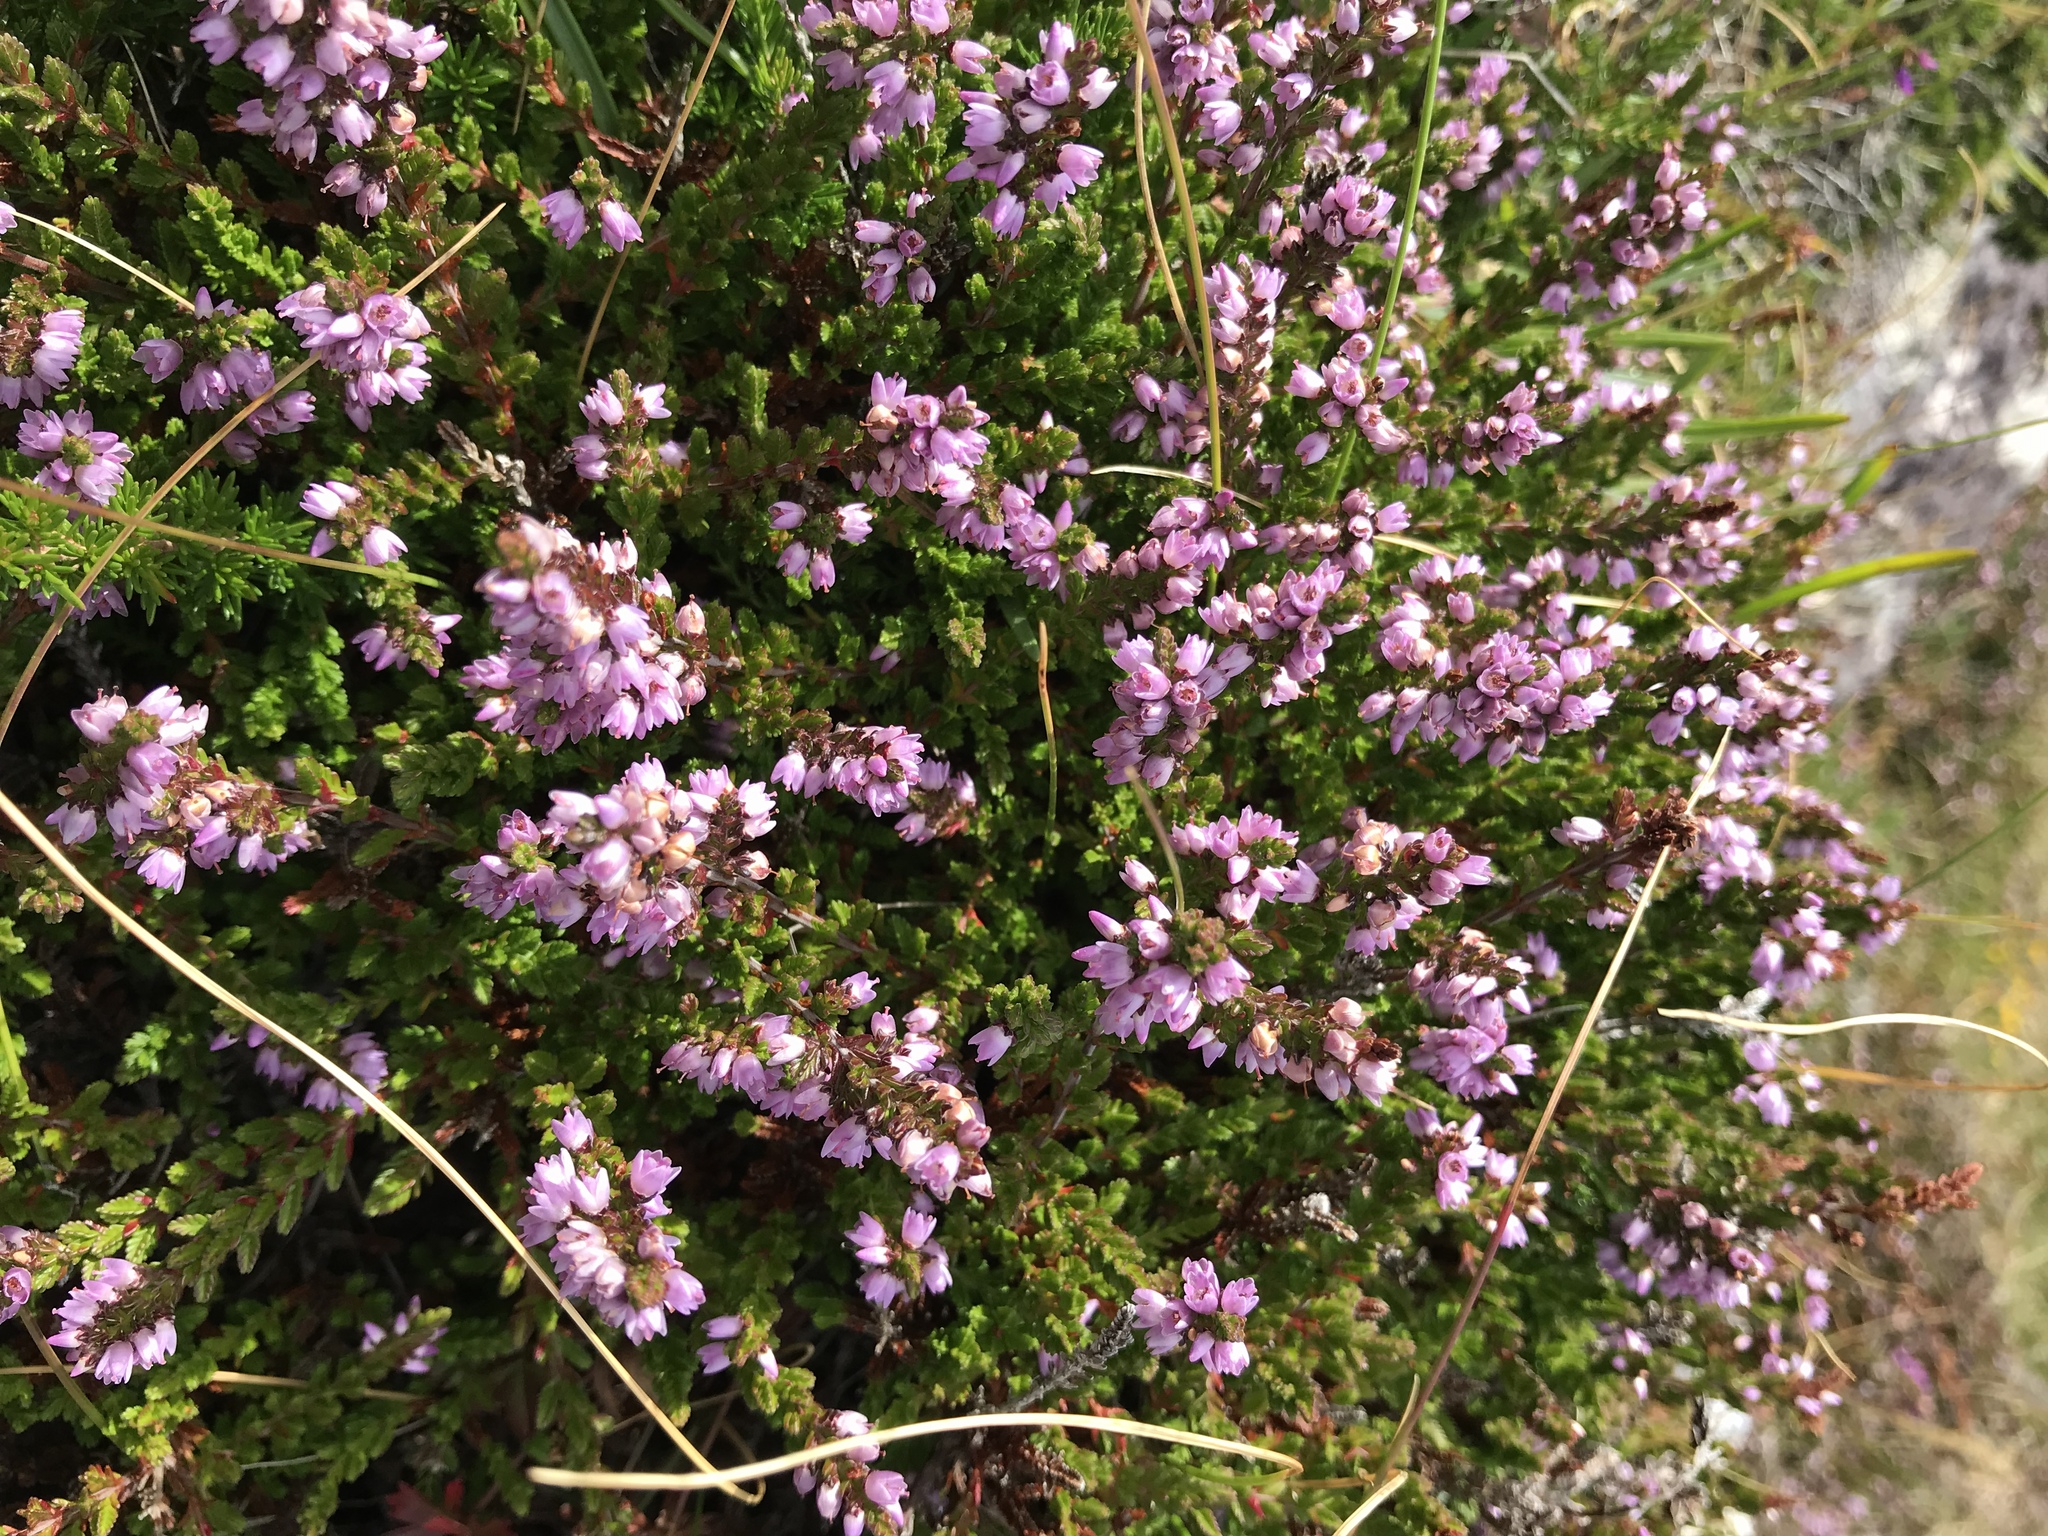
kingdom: Plantae
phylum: Tracheophyta
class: Magnoliopsida
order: Ericales
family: Ericaceae
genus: Calluna
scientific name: Calluna vulgaris
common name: Heather
